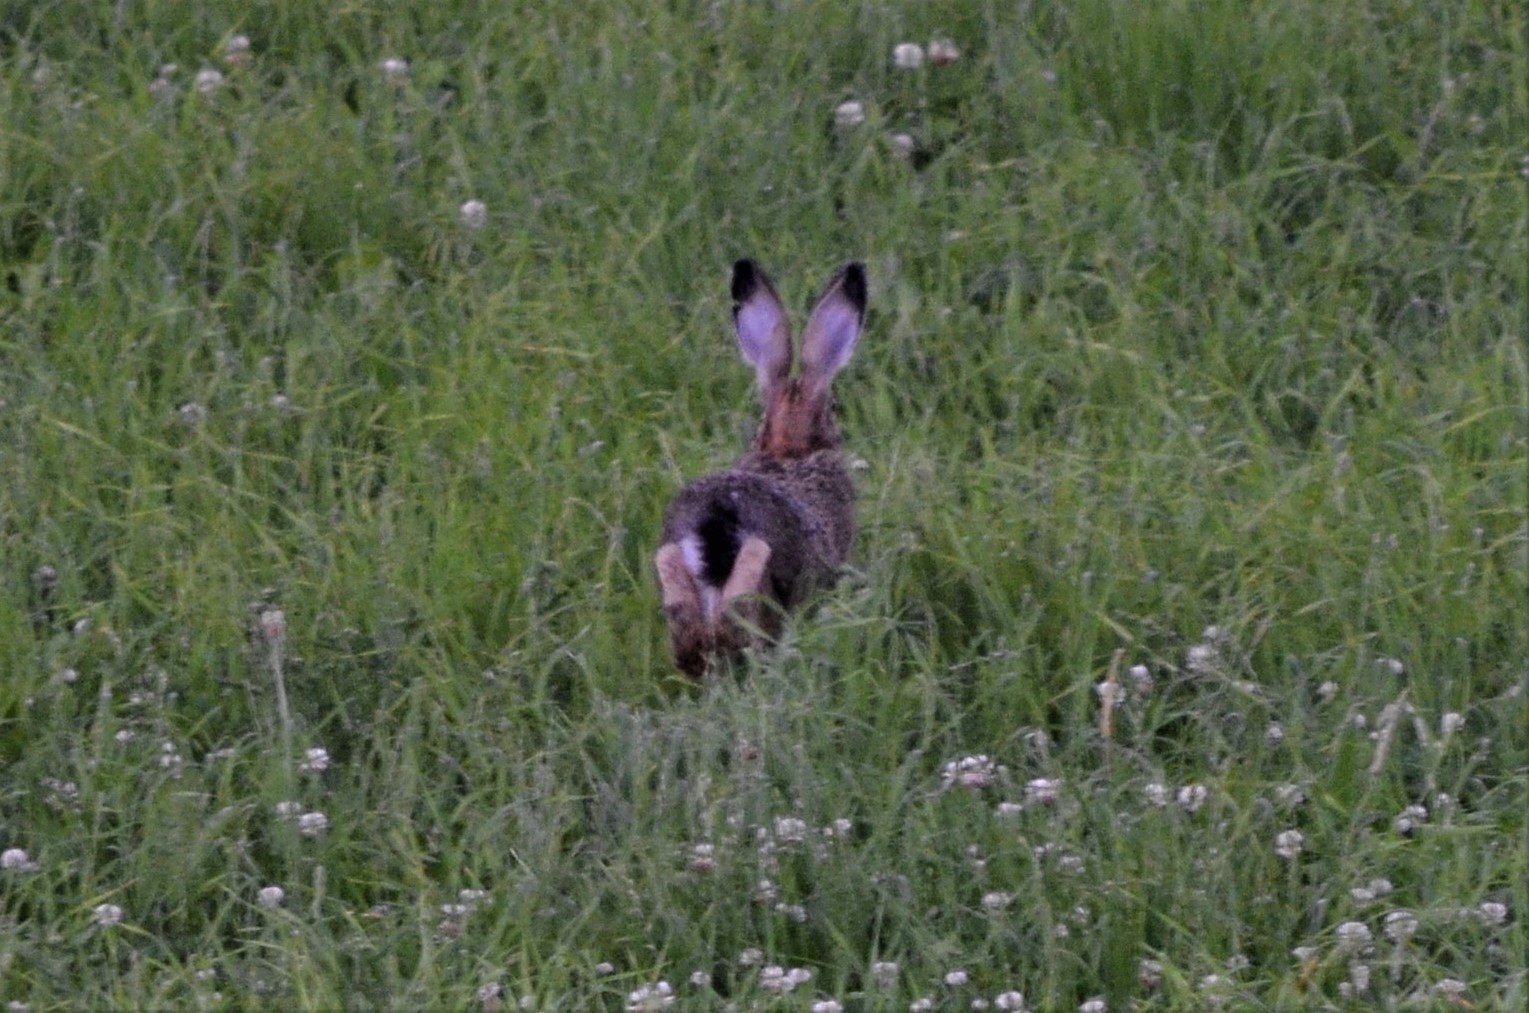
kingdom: Animalia
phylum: Chordata
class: Mammalia
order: Lagomorpha
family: Leporidae
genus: Lepus
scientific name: Lepus europaeus
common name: European hare
